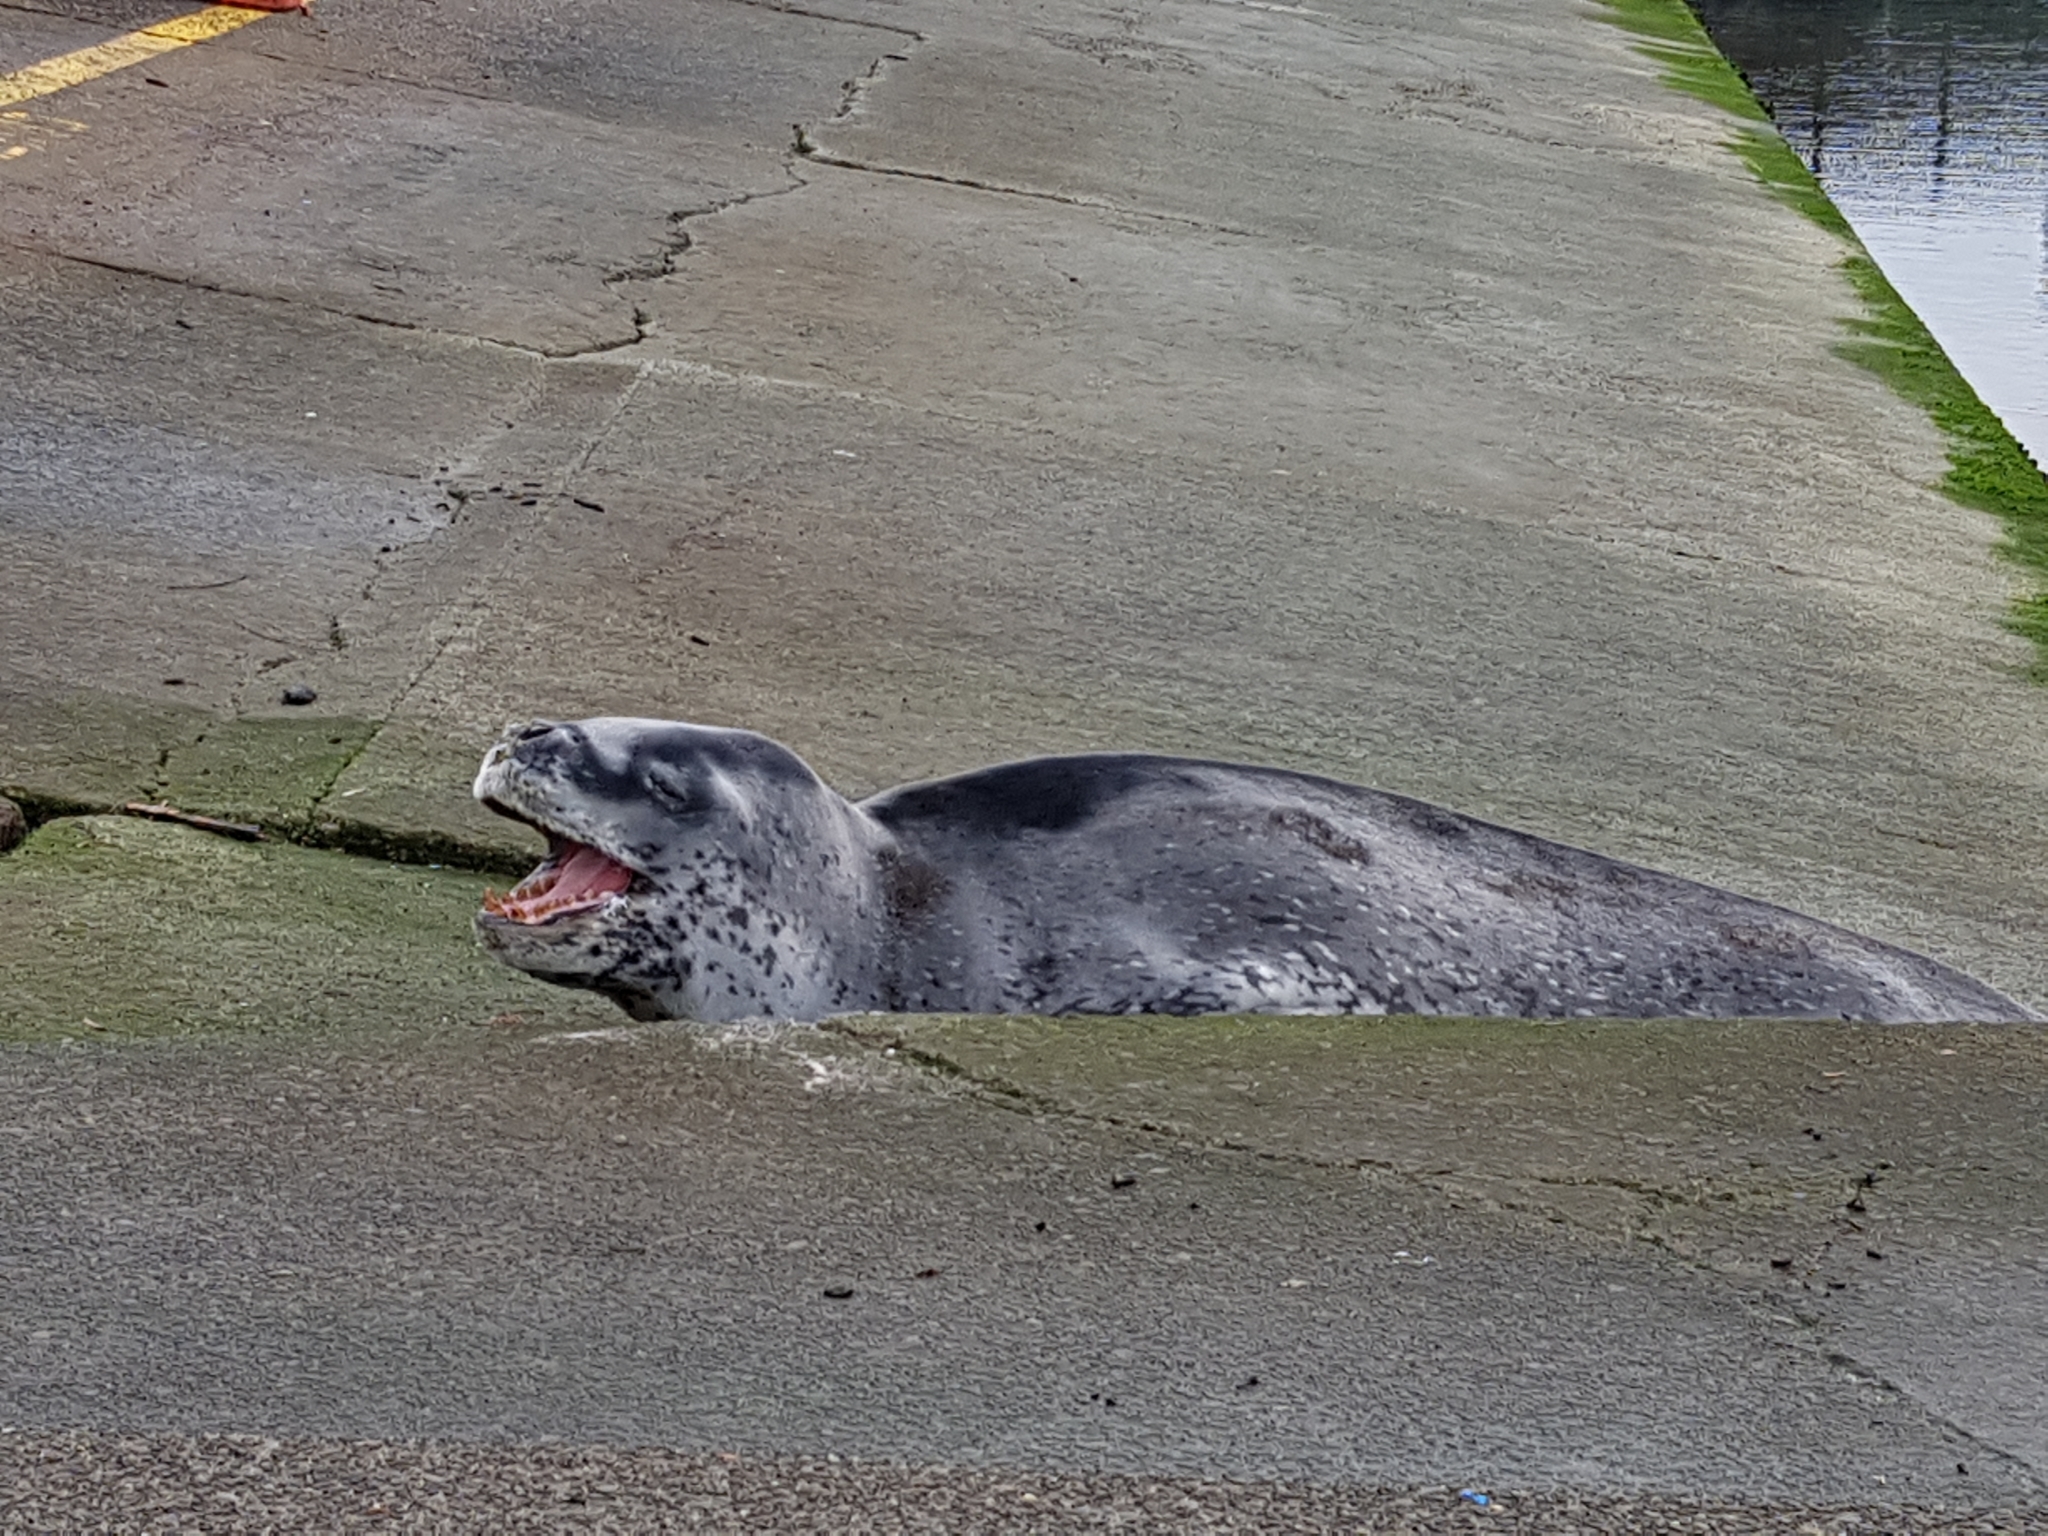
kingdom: Animalia
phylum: Chordata
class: Mammalia
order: Carnivora
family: Phocidae
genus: Hydrurga
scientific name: Hydrurga leptonyx
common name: Leopard seal
